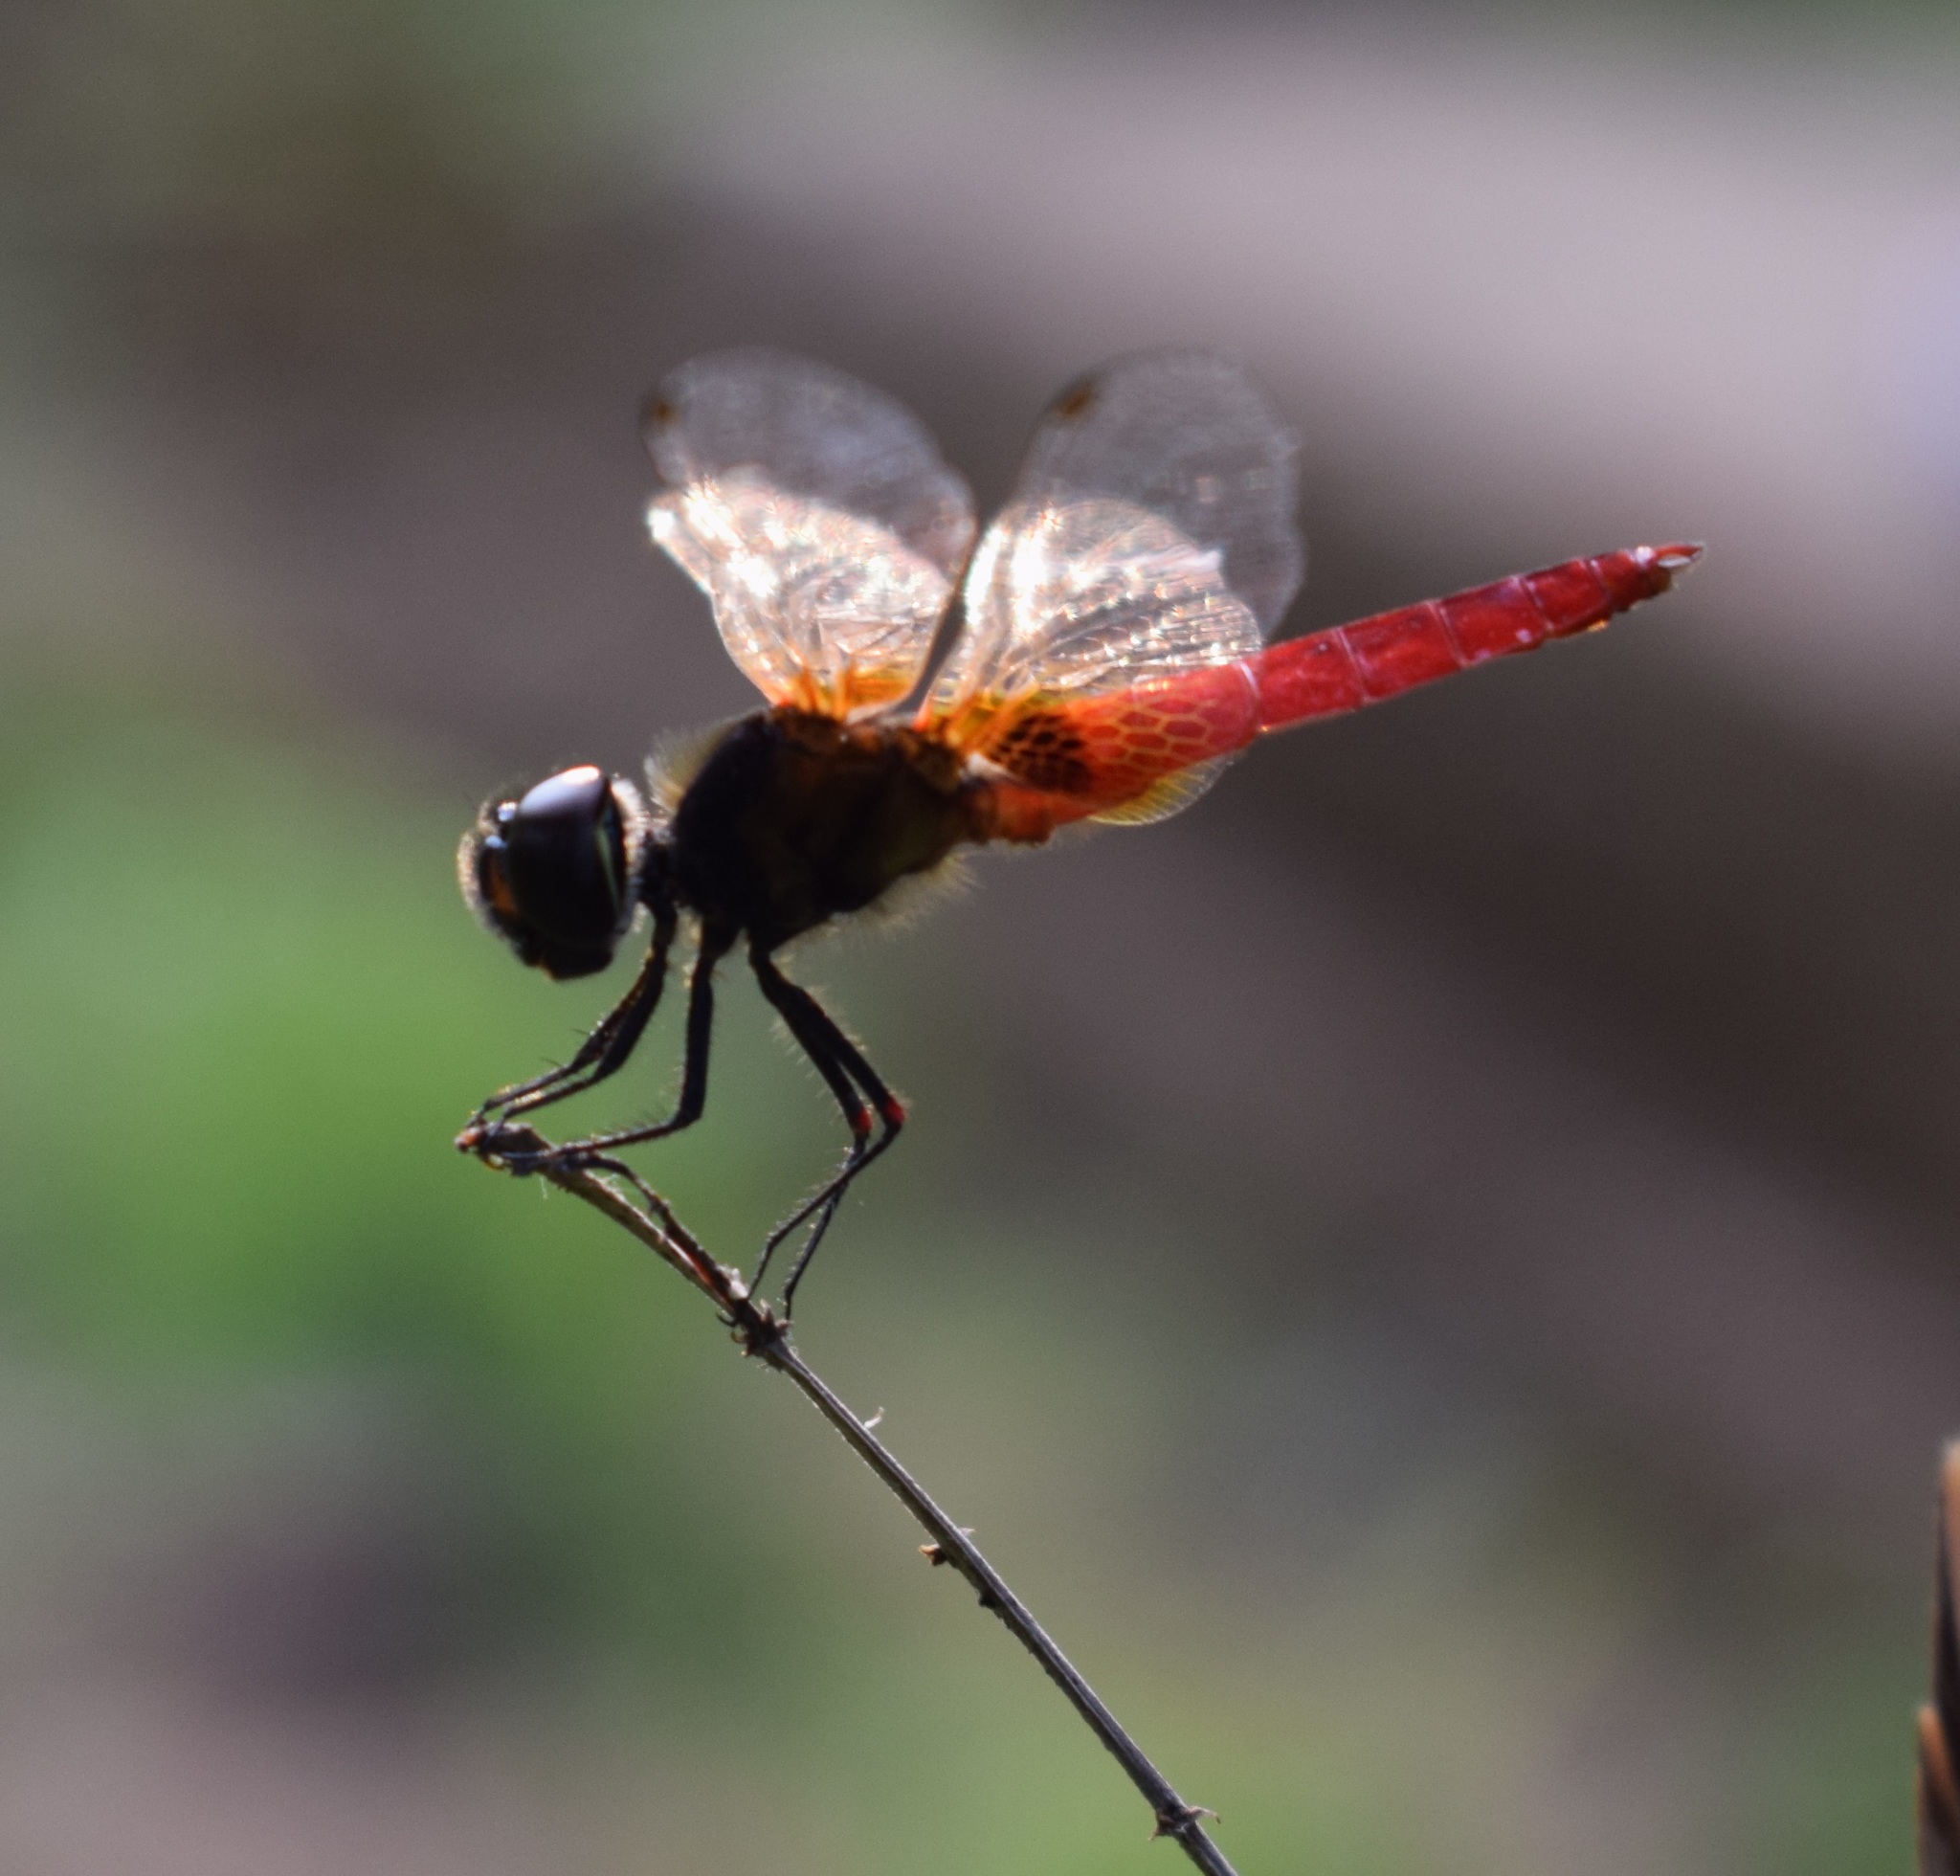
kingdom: Animalia
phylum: Arthropoda
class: Insecta
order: Odonata
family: Libellulidae
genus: Aethriamanta
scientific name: Aethriamanta brevipennis
